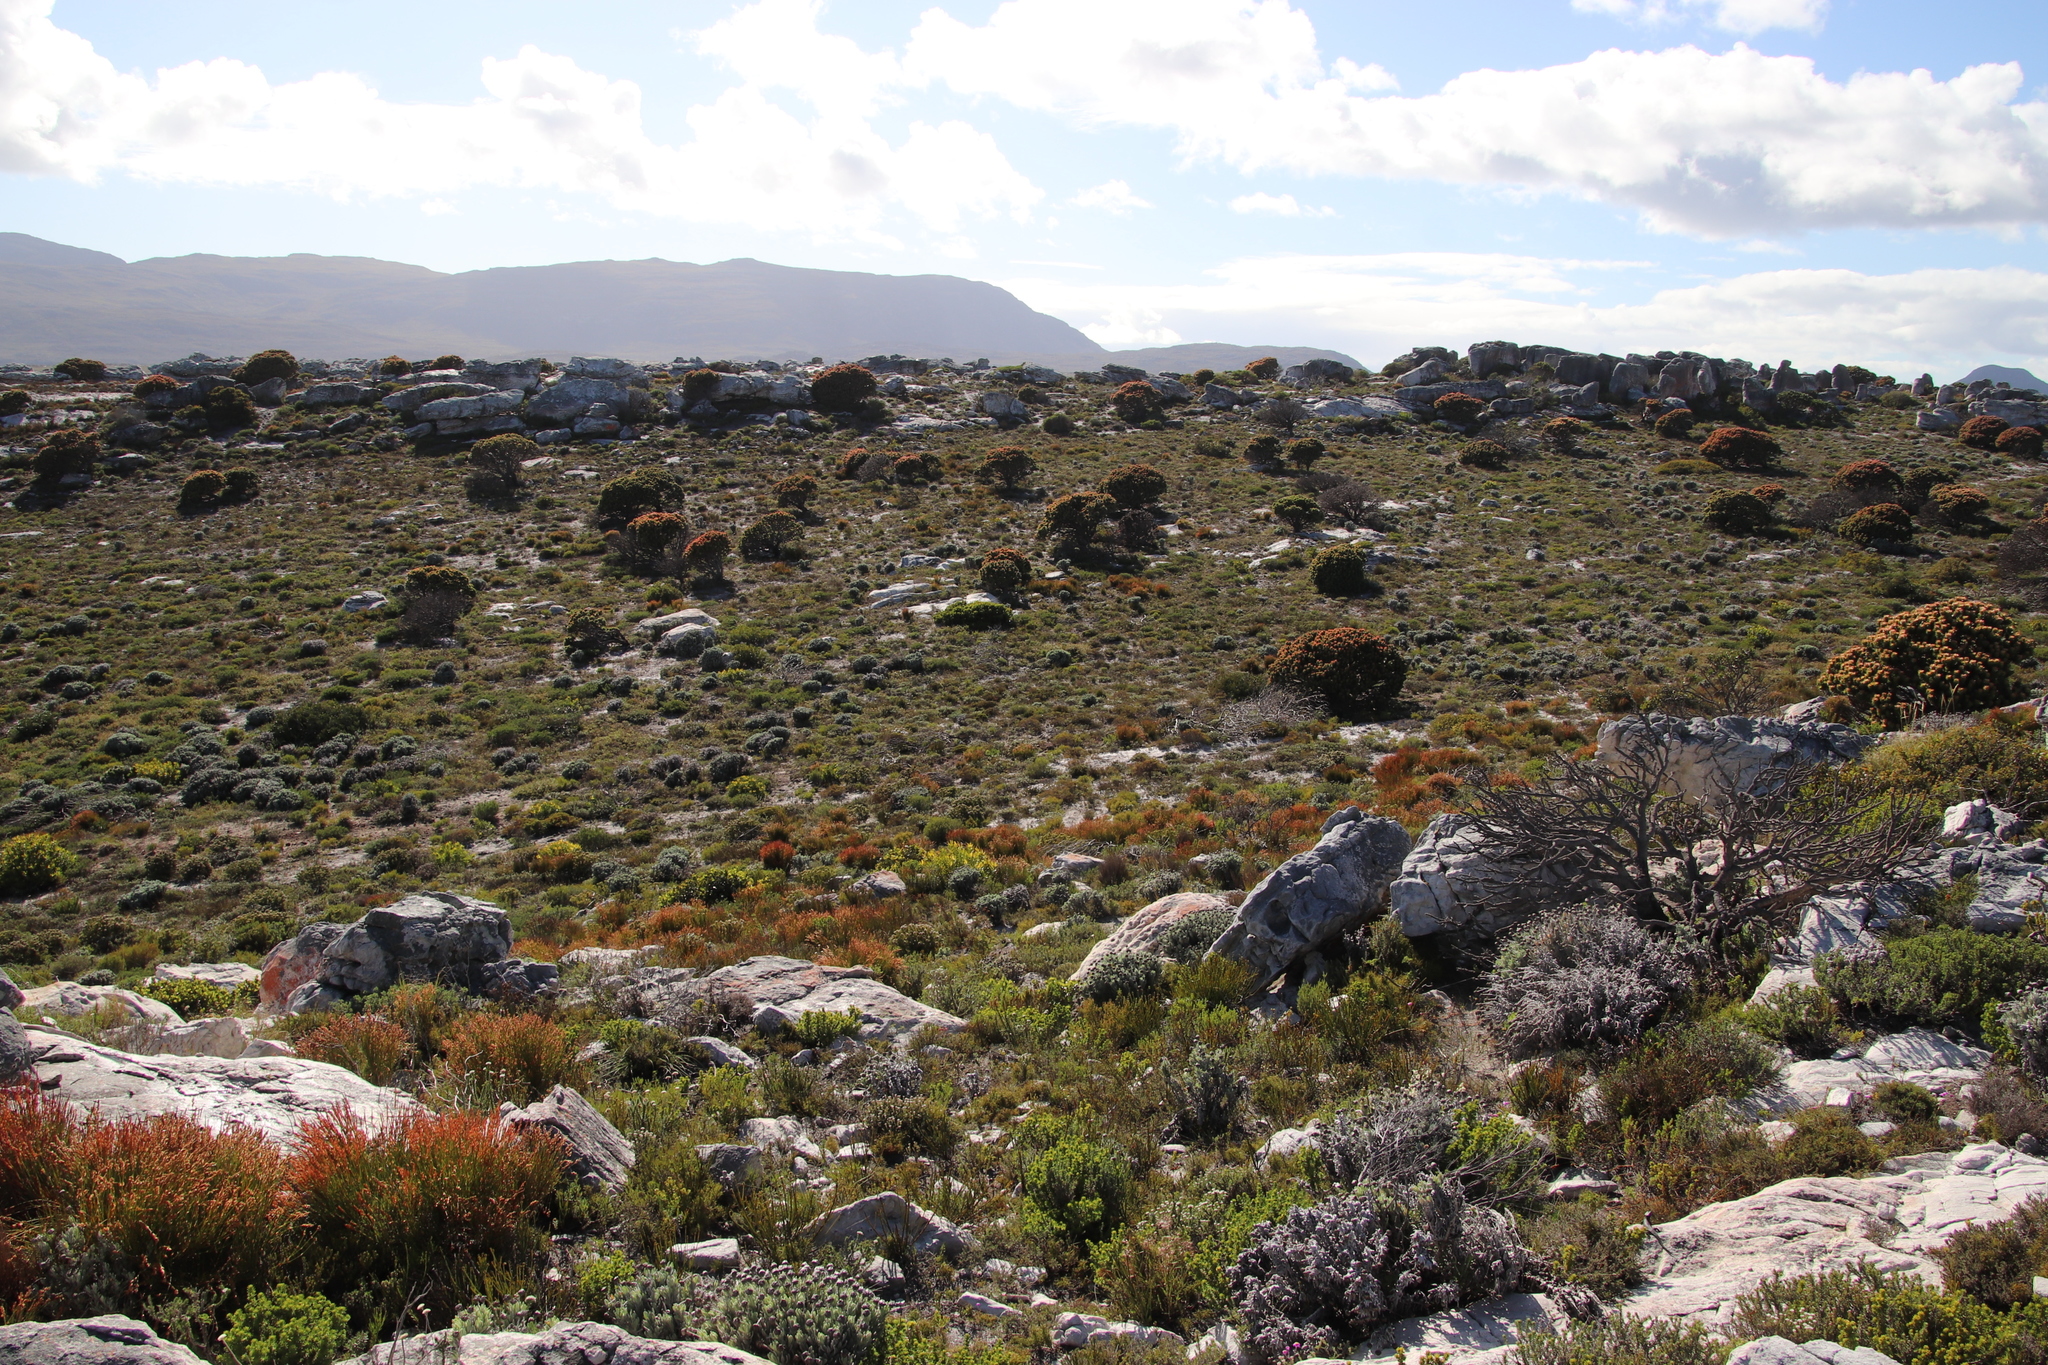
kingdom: Plantae
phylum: Tracheophyta
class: Magnoliopsida
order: Proteales
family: Proteaceae
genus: Mimetes
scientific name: Mimetes fimbriifolius
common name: Fringed bottlebrush
